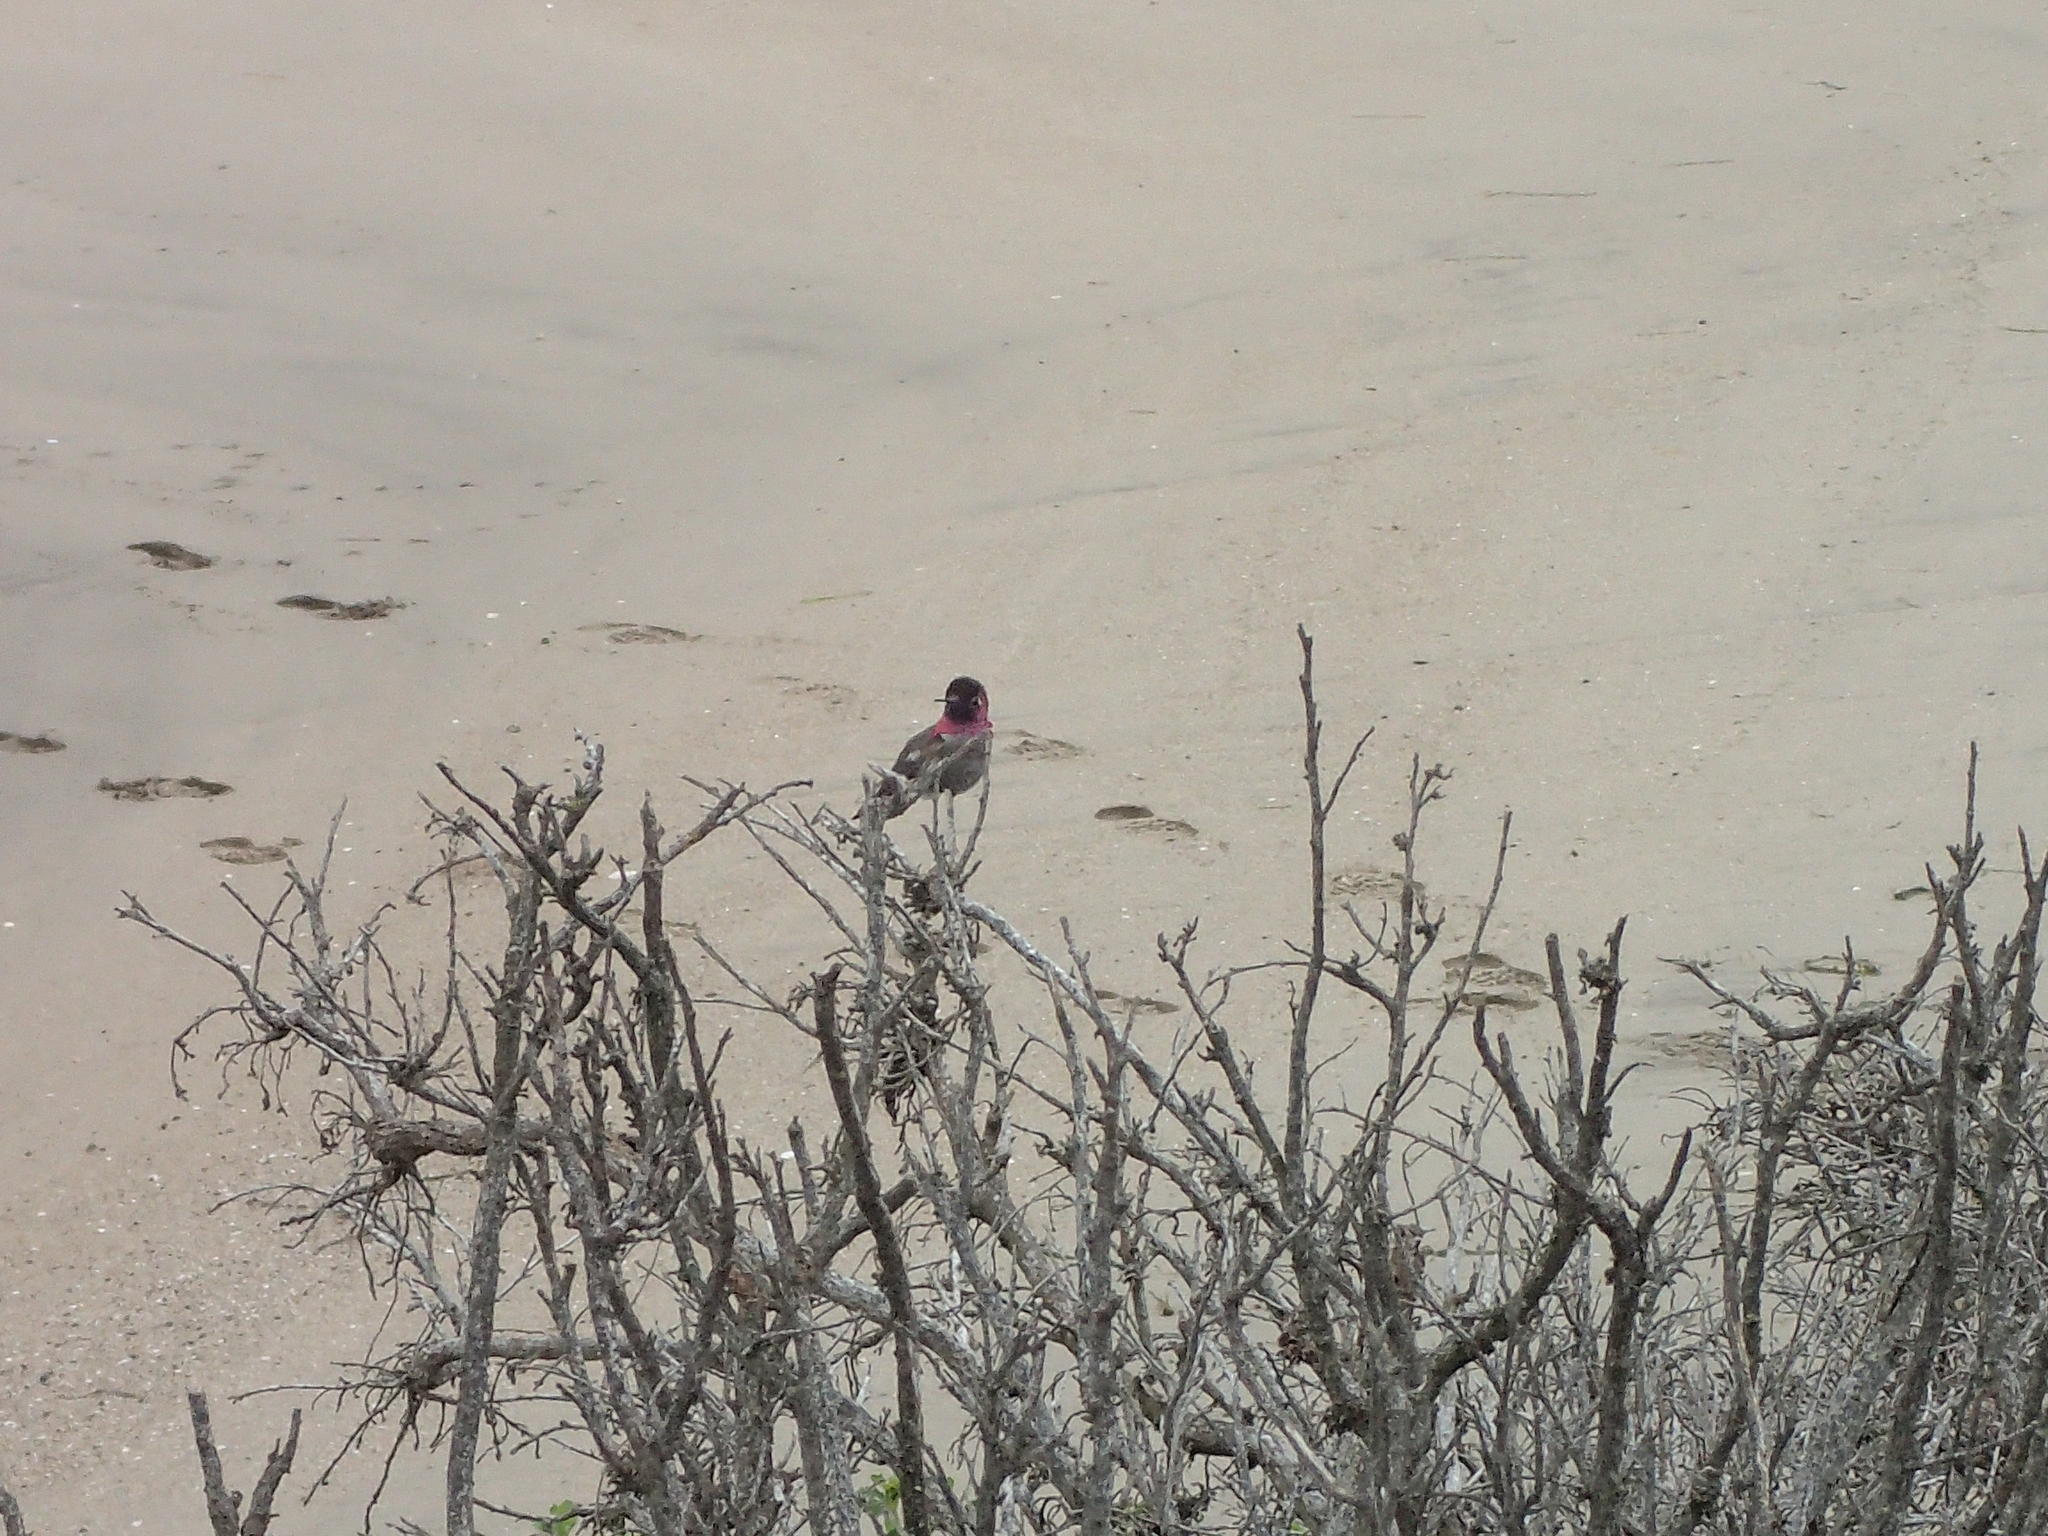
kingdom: Animalia
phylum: Chordata
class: Aves
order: Apodiformes
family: Trochilidae
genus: Calypte
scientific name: Calypte anna
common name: Anna's hummingbird
